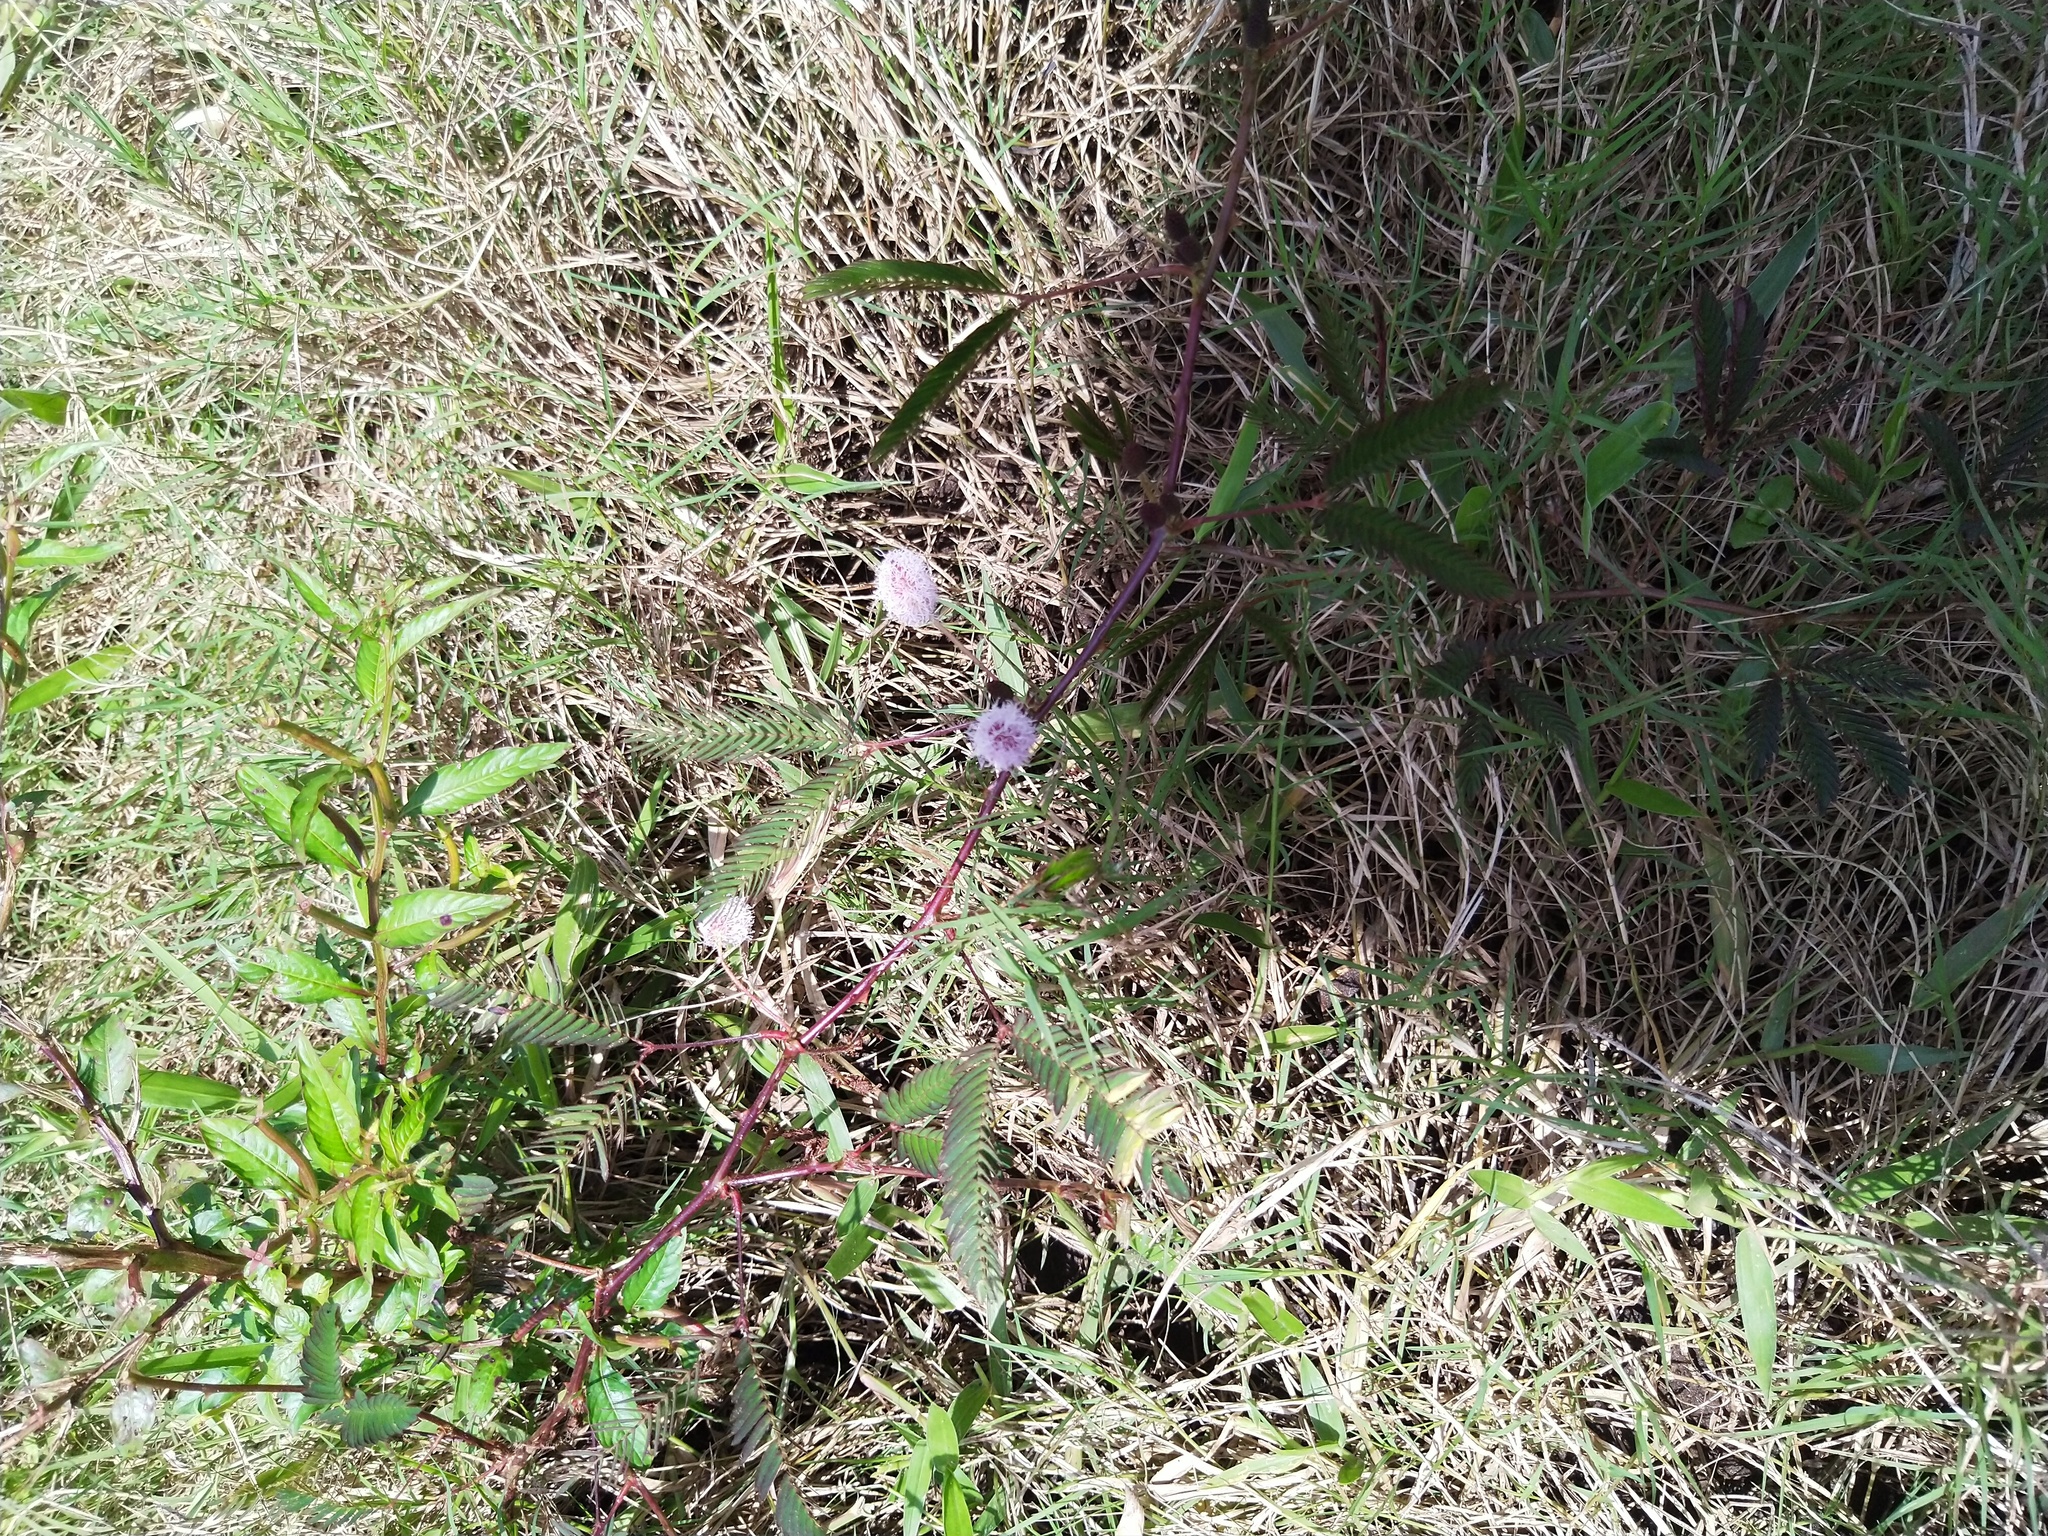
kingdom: Plantae
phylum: Tracheophyta
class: Magnoliopsida
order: Fabales
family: Fabaceae
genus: Mimosa
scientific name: Mimosa pudica
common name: Sensitive plant
